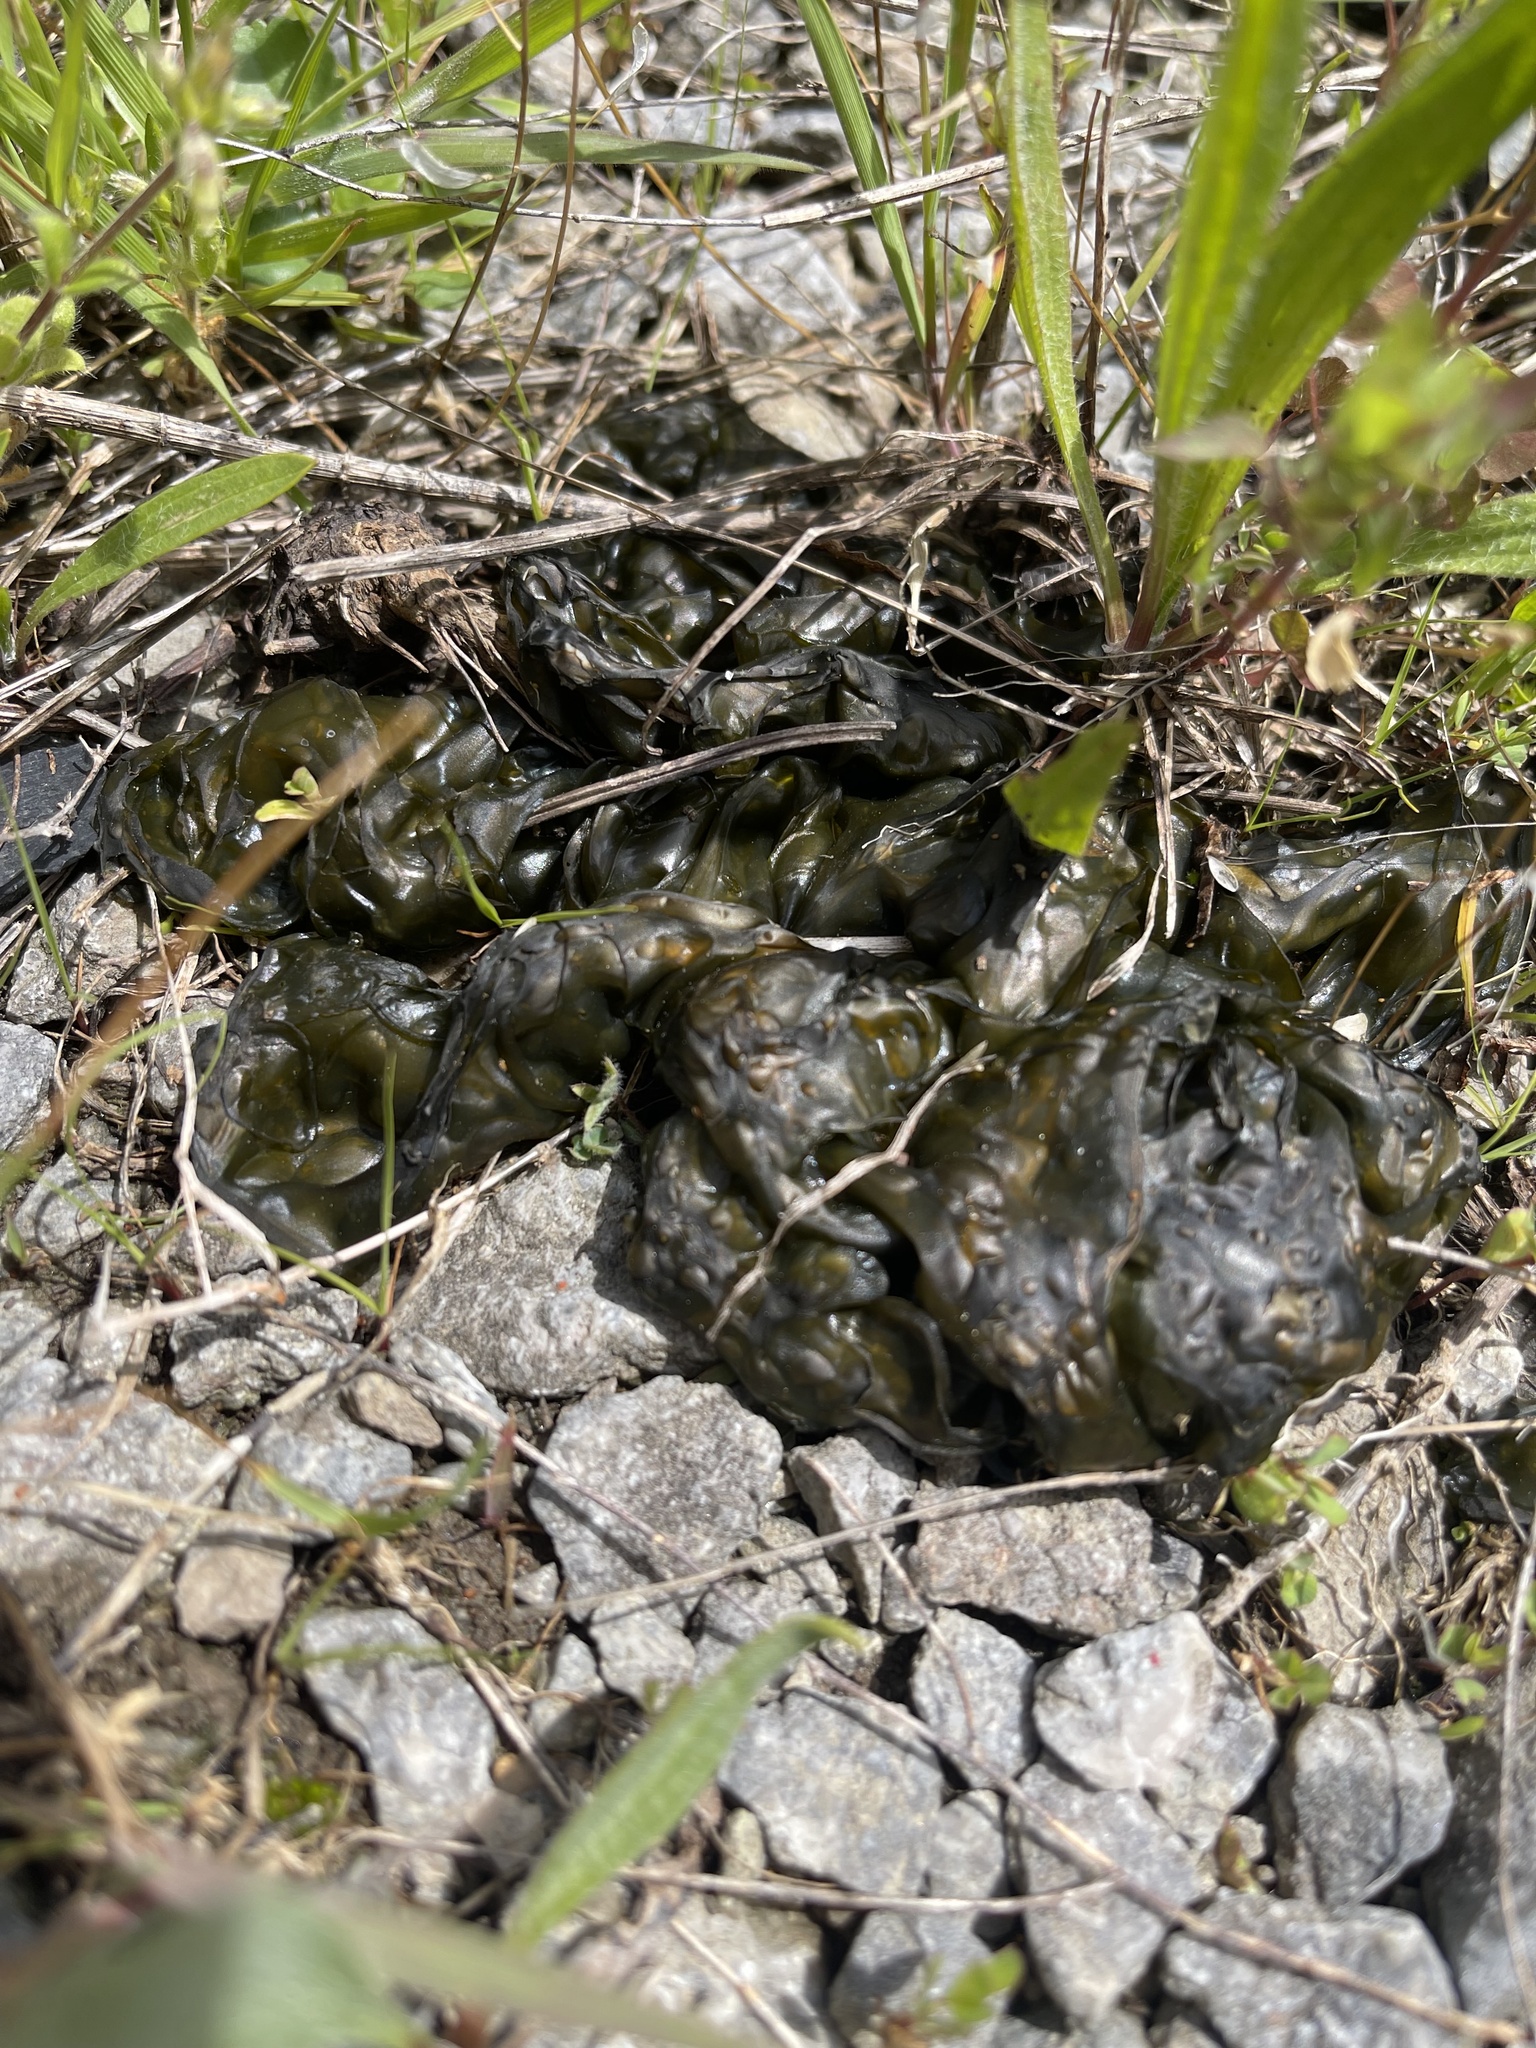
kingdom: Bacteria
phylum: Cyanobacteria
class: Cyanobacteriia
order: Cyanobacteriales
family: Nostocaceae
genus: Nostoc
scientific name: Nostoc commune
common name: Star jelly
